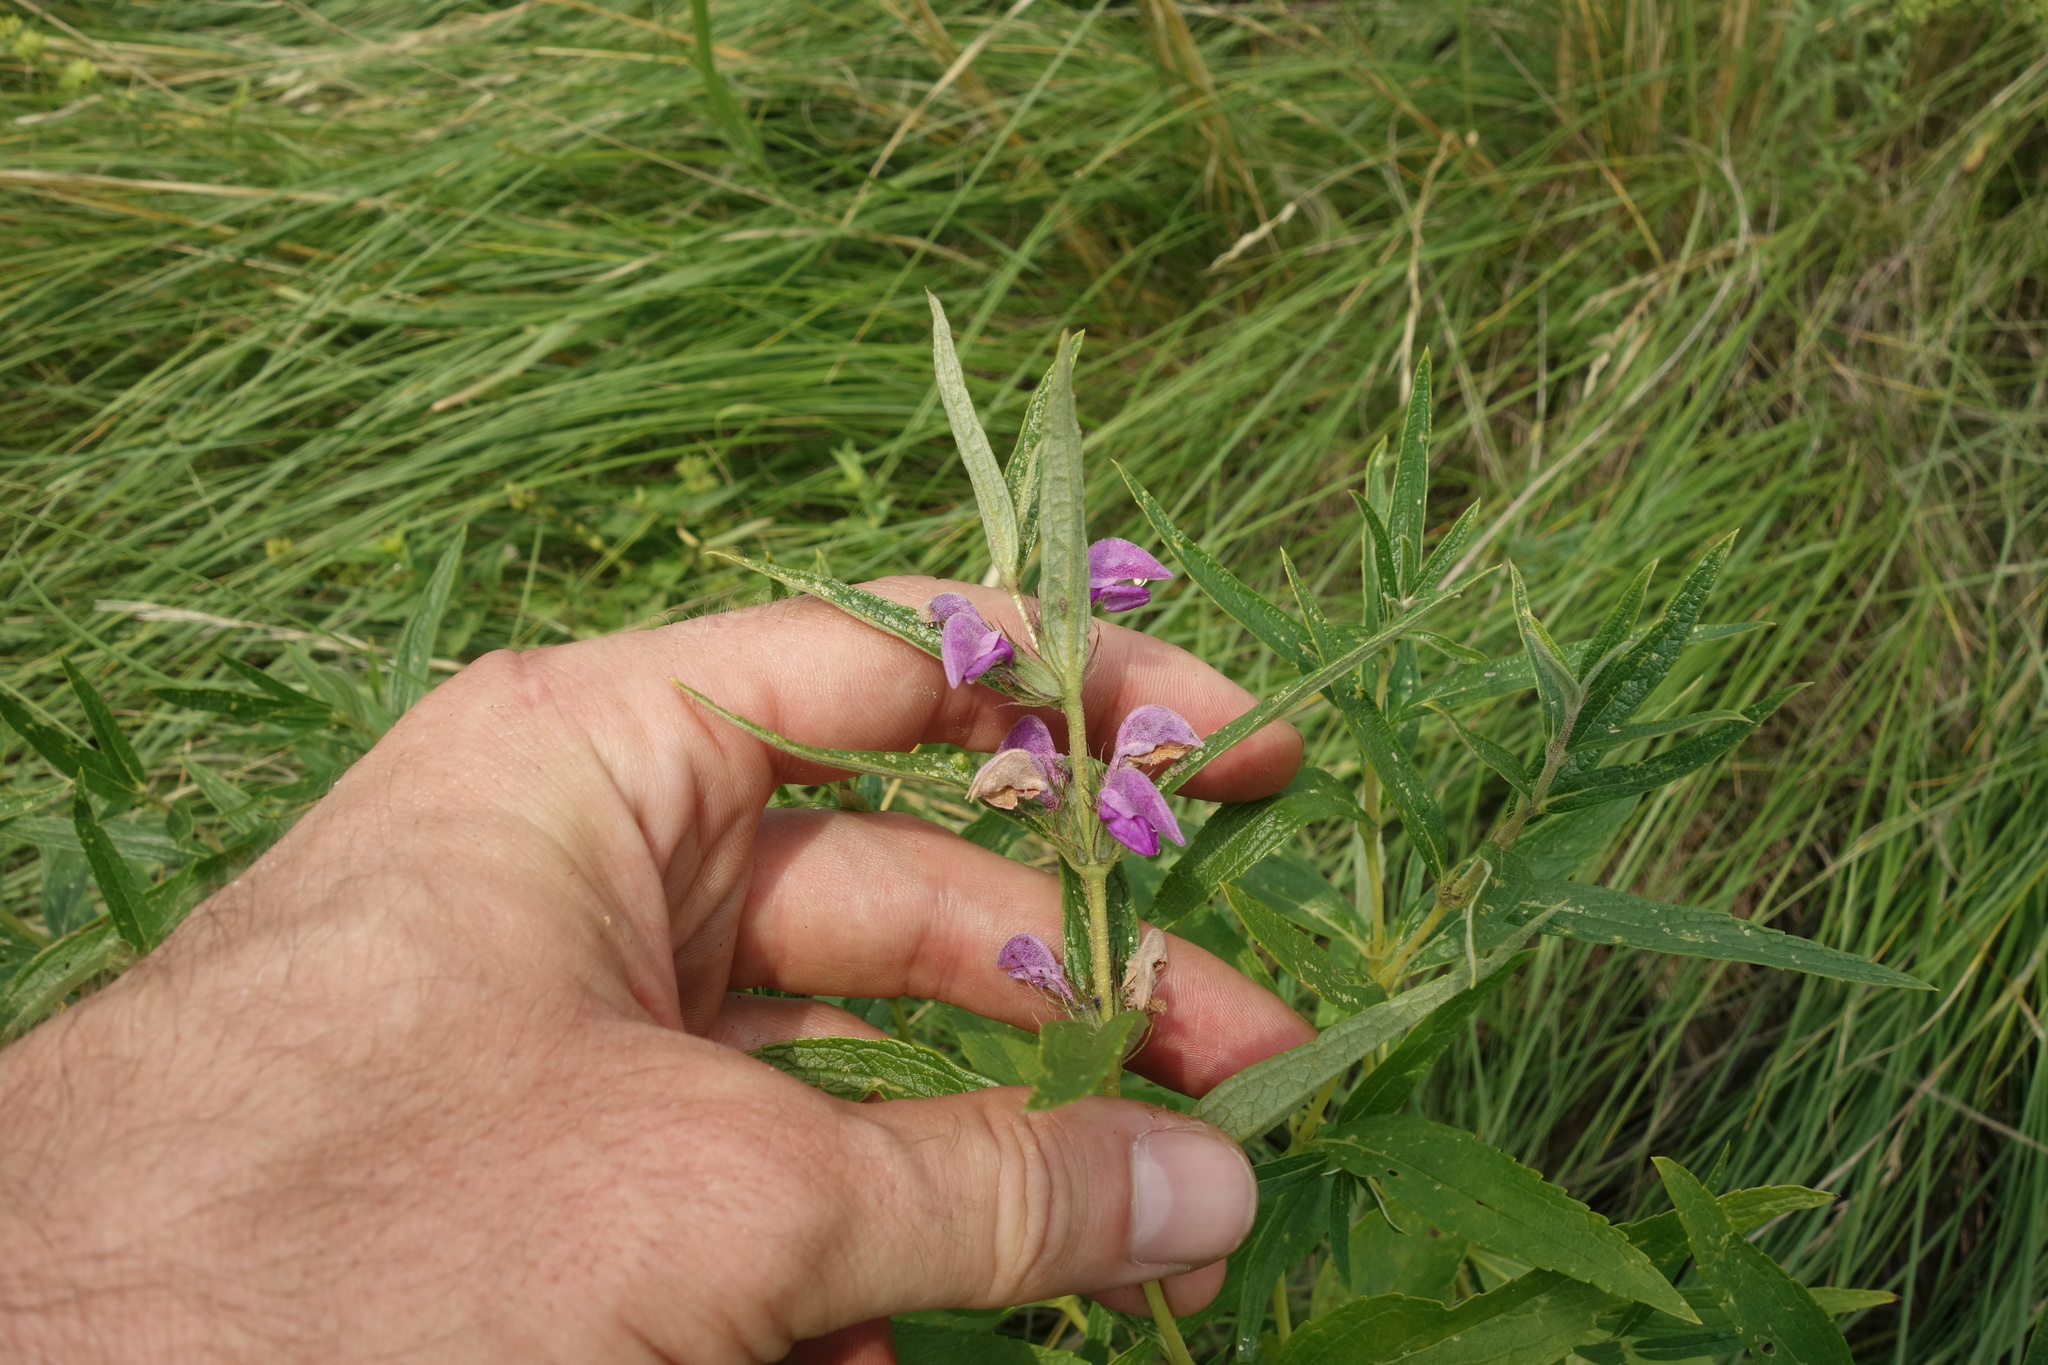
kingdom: Plantae
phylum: Tracheophyta
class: Magnoliopsida
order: Lamiales
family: Lamiaceae
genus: Phlomis
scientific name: Phlomis herba-venti
